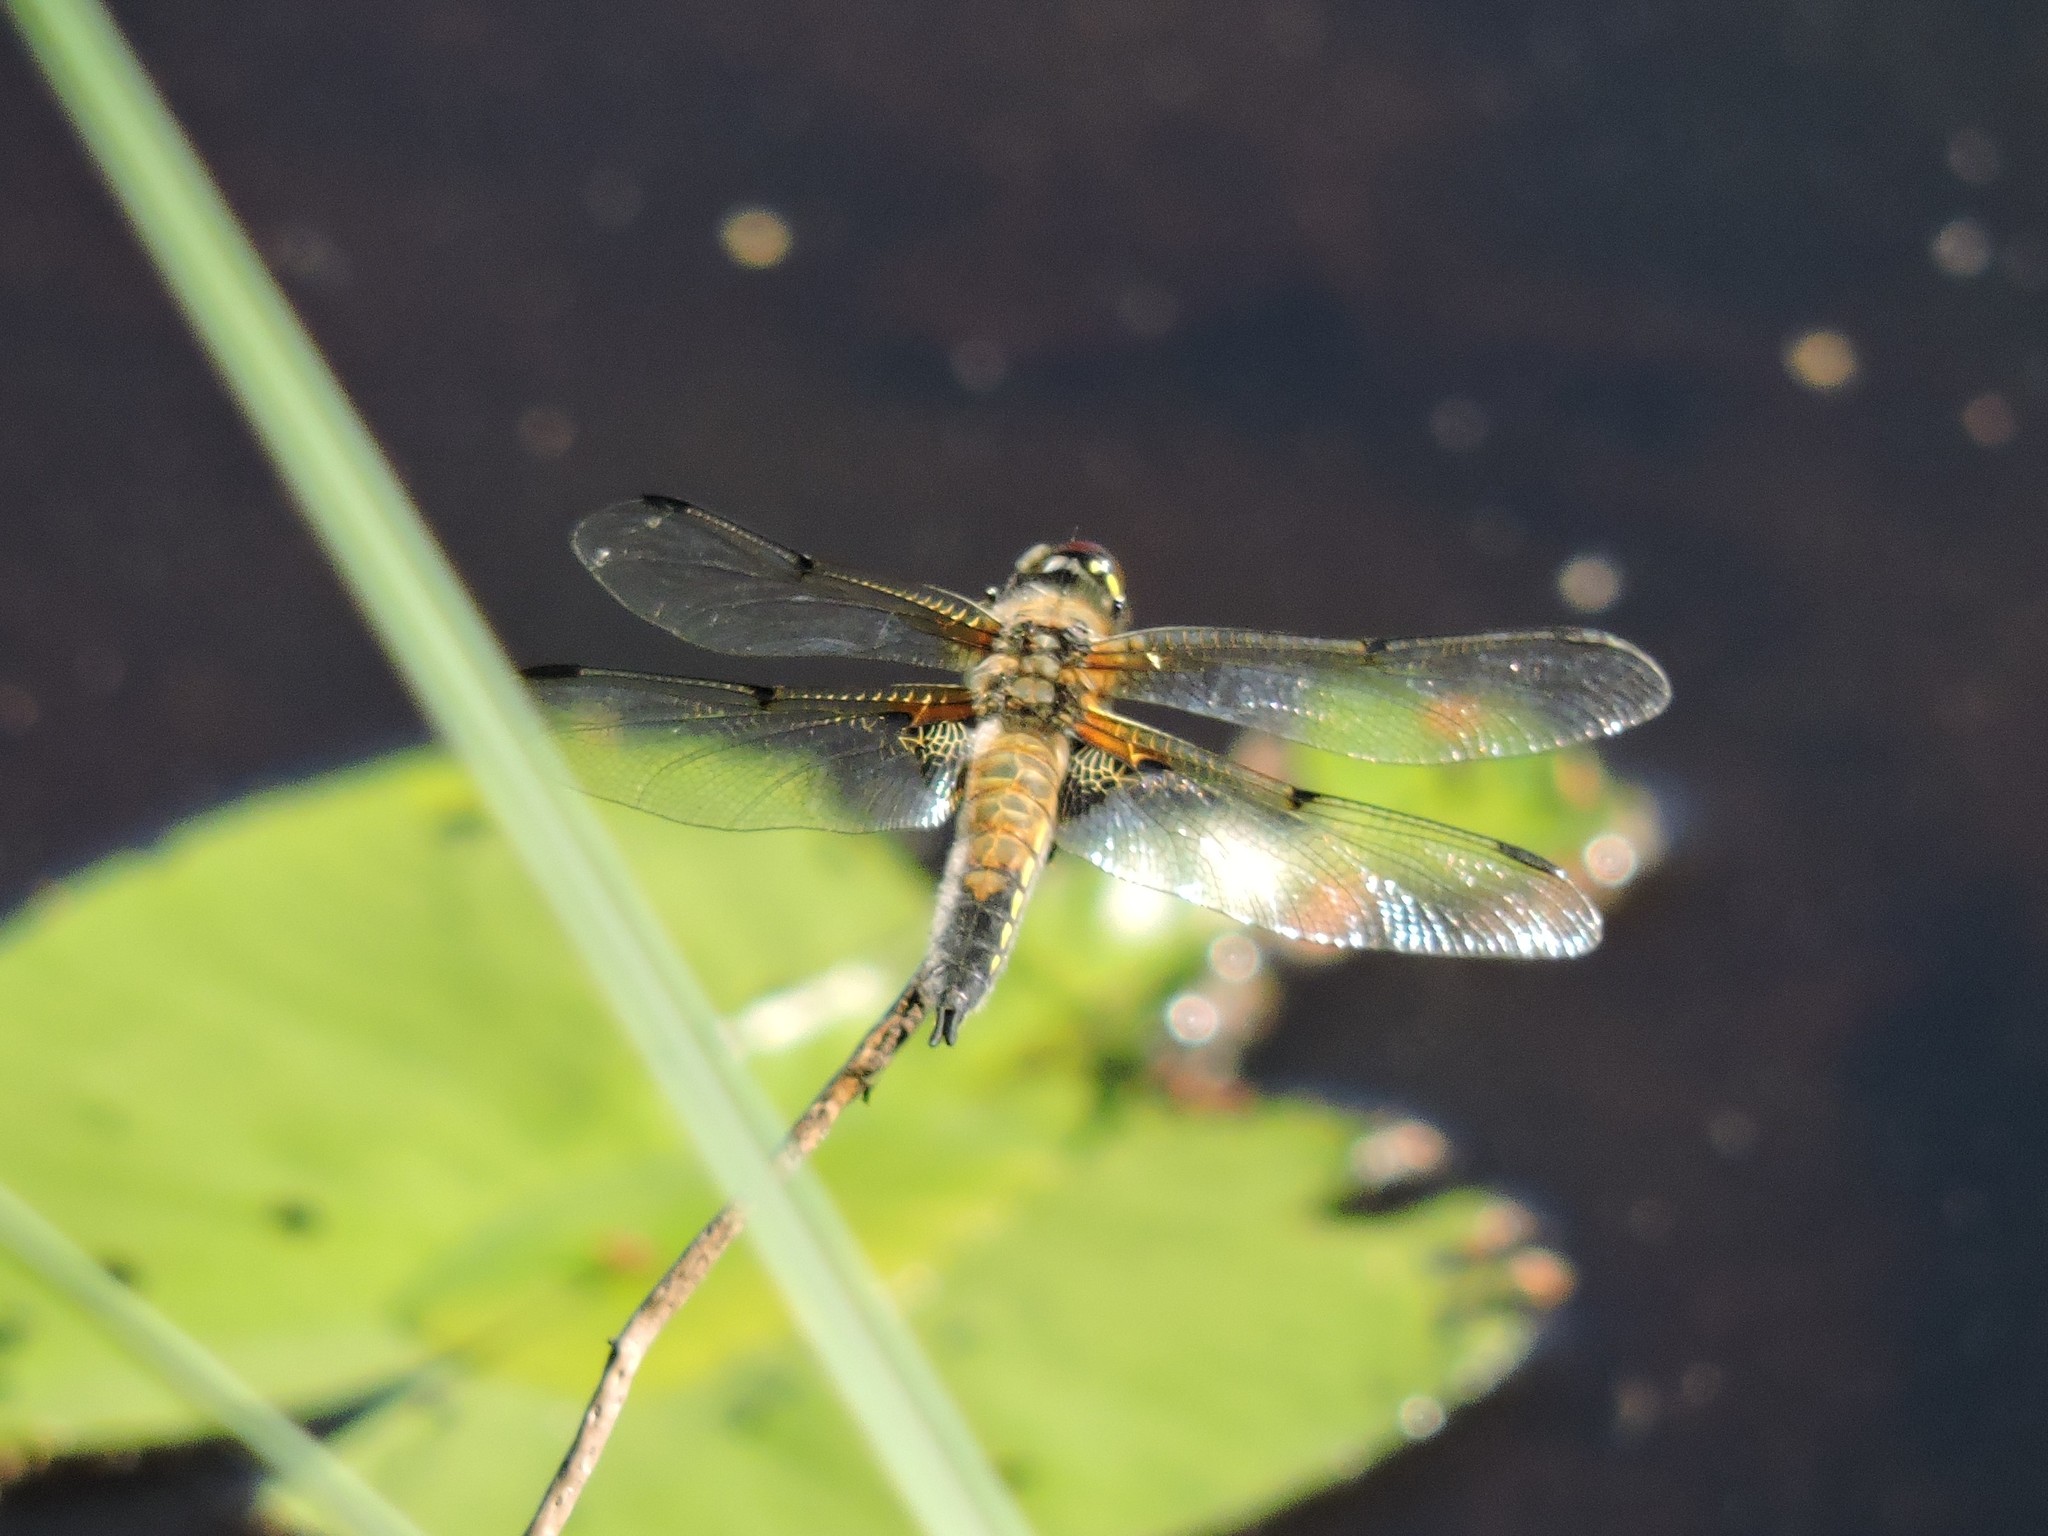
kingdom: Animalia
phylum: Arthropoda
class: Insecta
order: Odonata
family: Libellulidae
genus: Libellula
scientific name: Libellula quadrimaculata
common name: Four-spotted chaser
